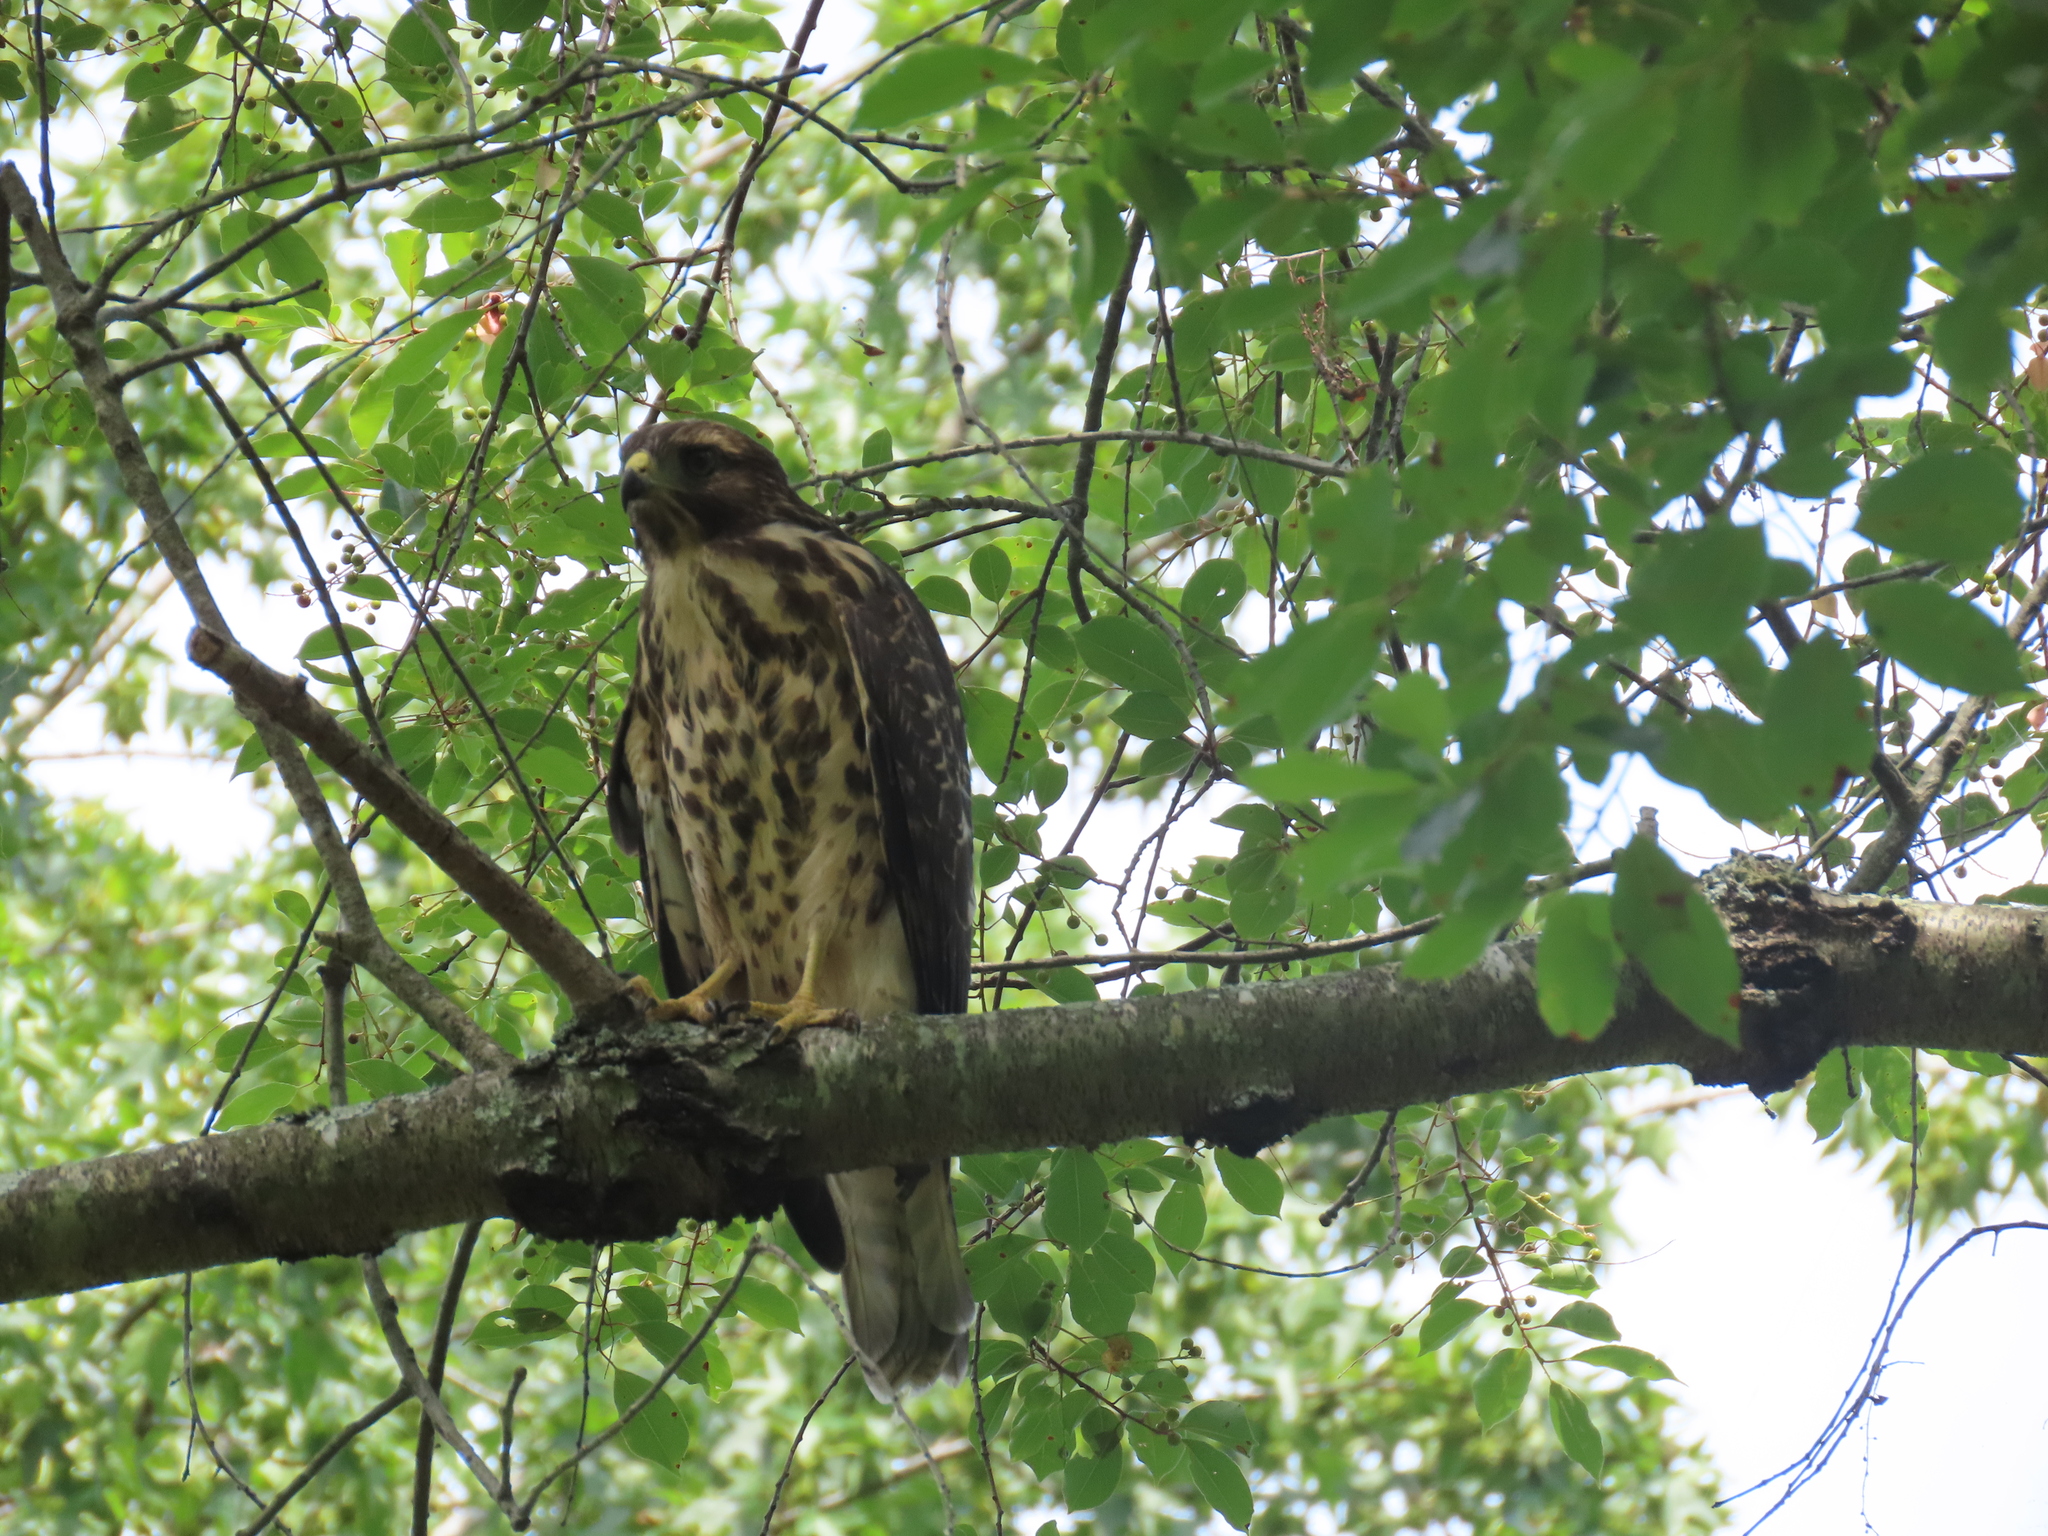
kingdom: Animalia
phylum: Chordata
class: Aves
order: Accipitriformes
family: Accipitridae
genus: Buteo
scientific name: Buteo lineatus
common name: Red-shouldered hawk
